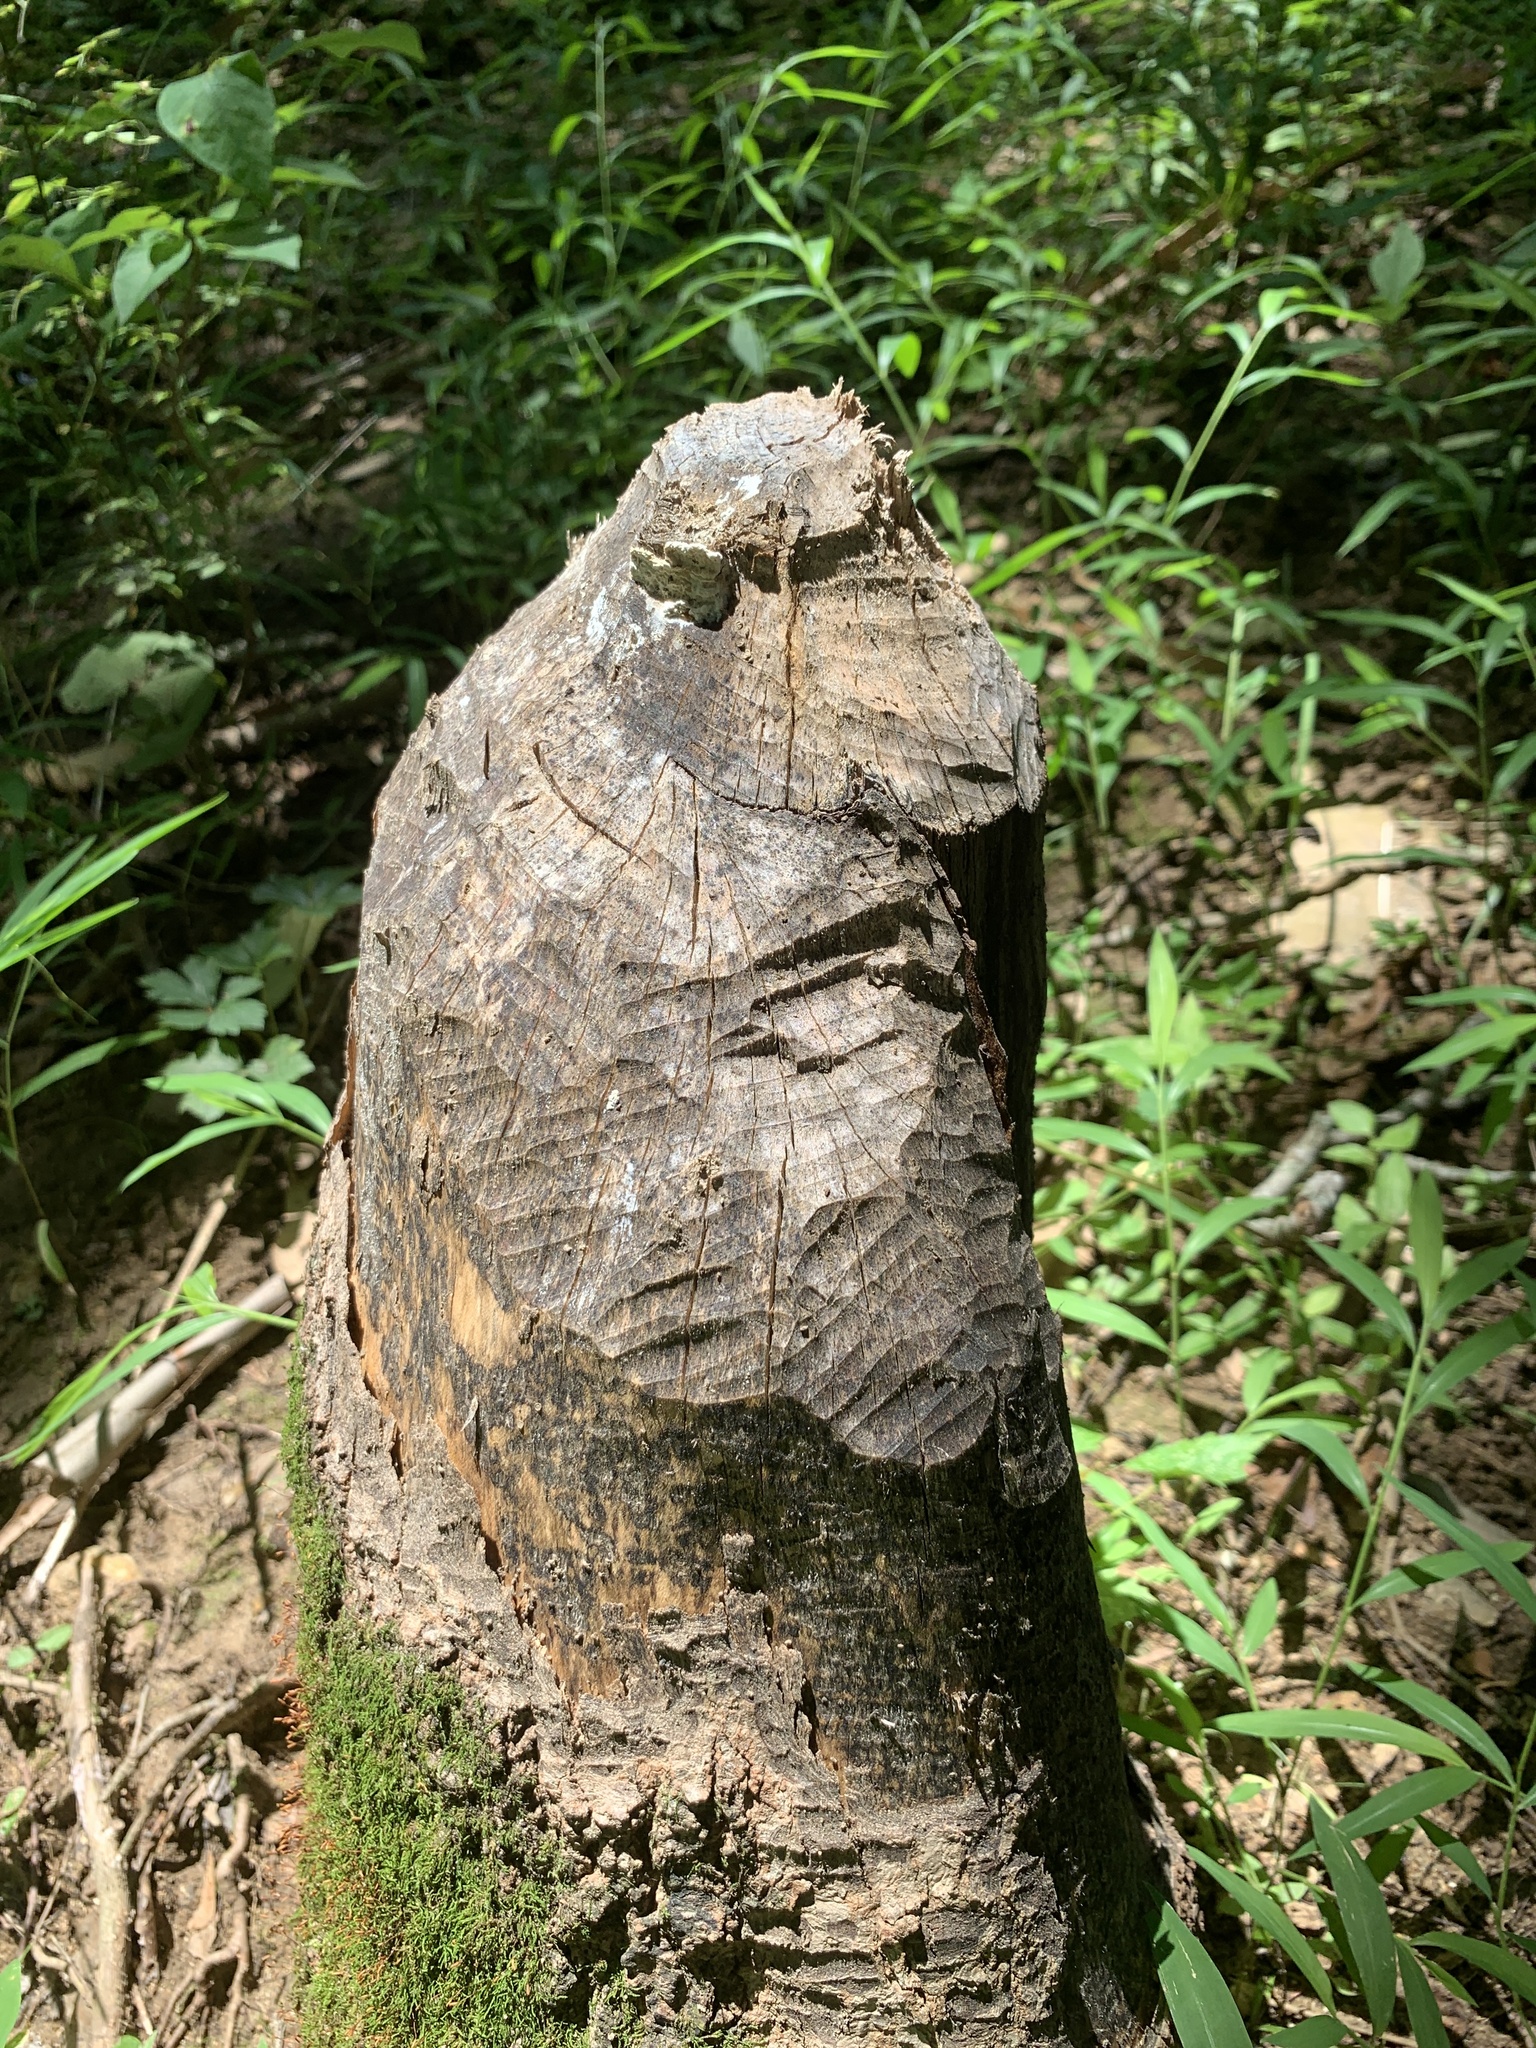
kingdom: Animalia
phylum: Chordata
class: Mammalia
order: Rodentia
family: Castoridae
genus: Castor
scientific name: Castor canadensis
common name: American beaver
